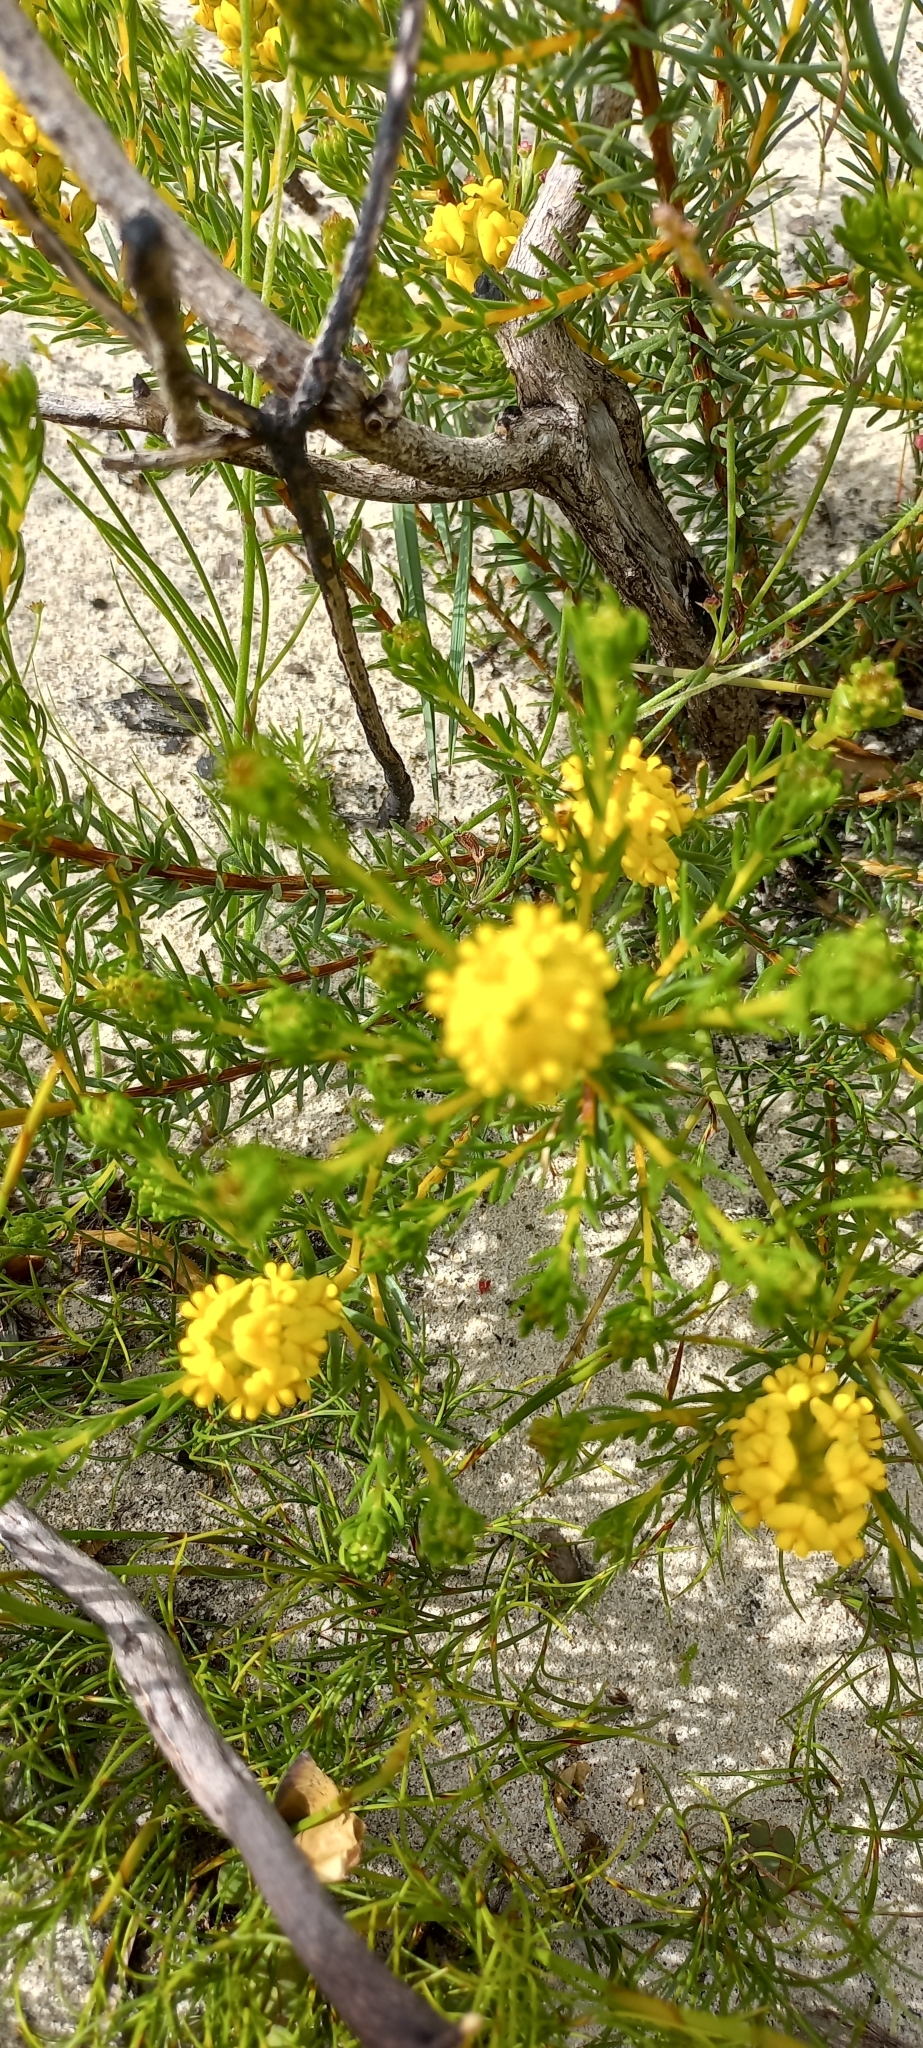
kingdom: Plantae
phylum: Tracheophyta
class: Magnoliopsida
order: Fabales
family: Fabaceae
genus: Aspalathus
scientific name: Aspalathus callosa
